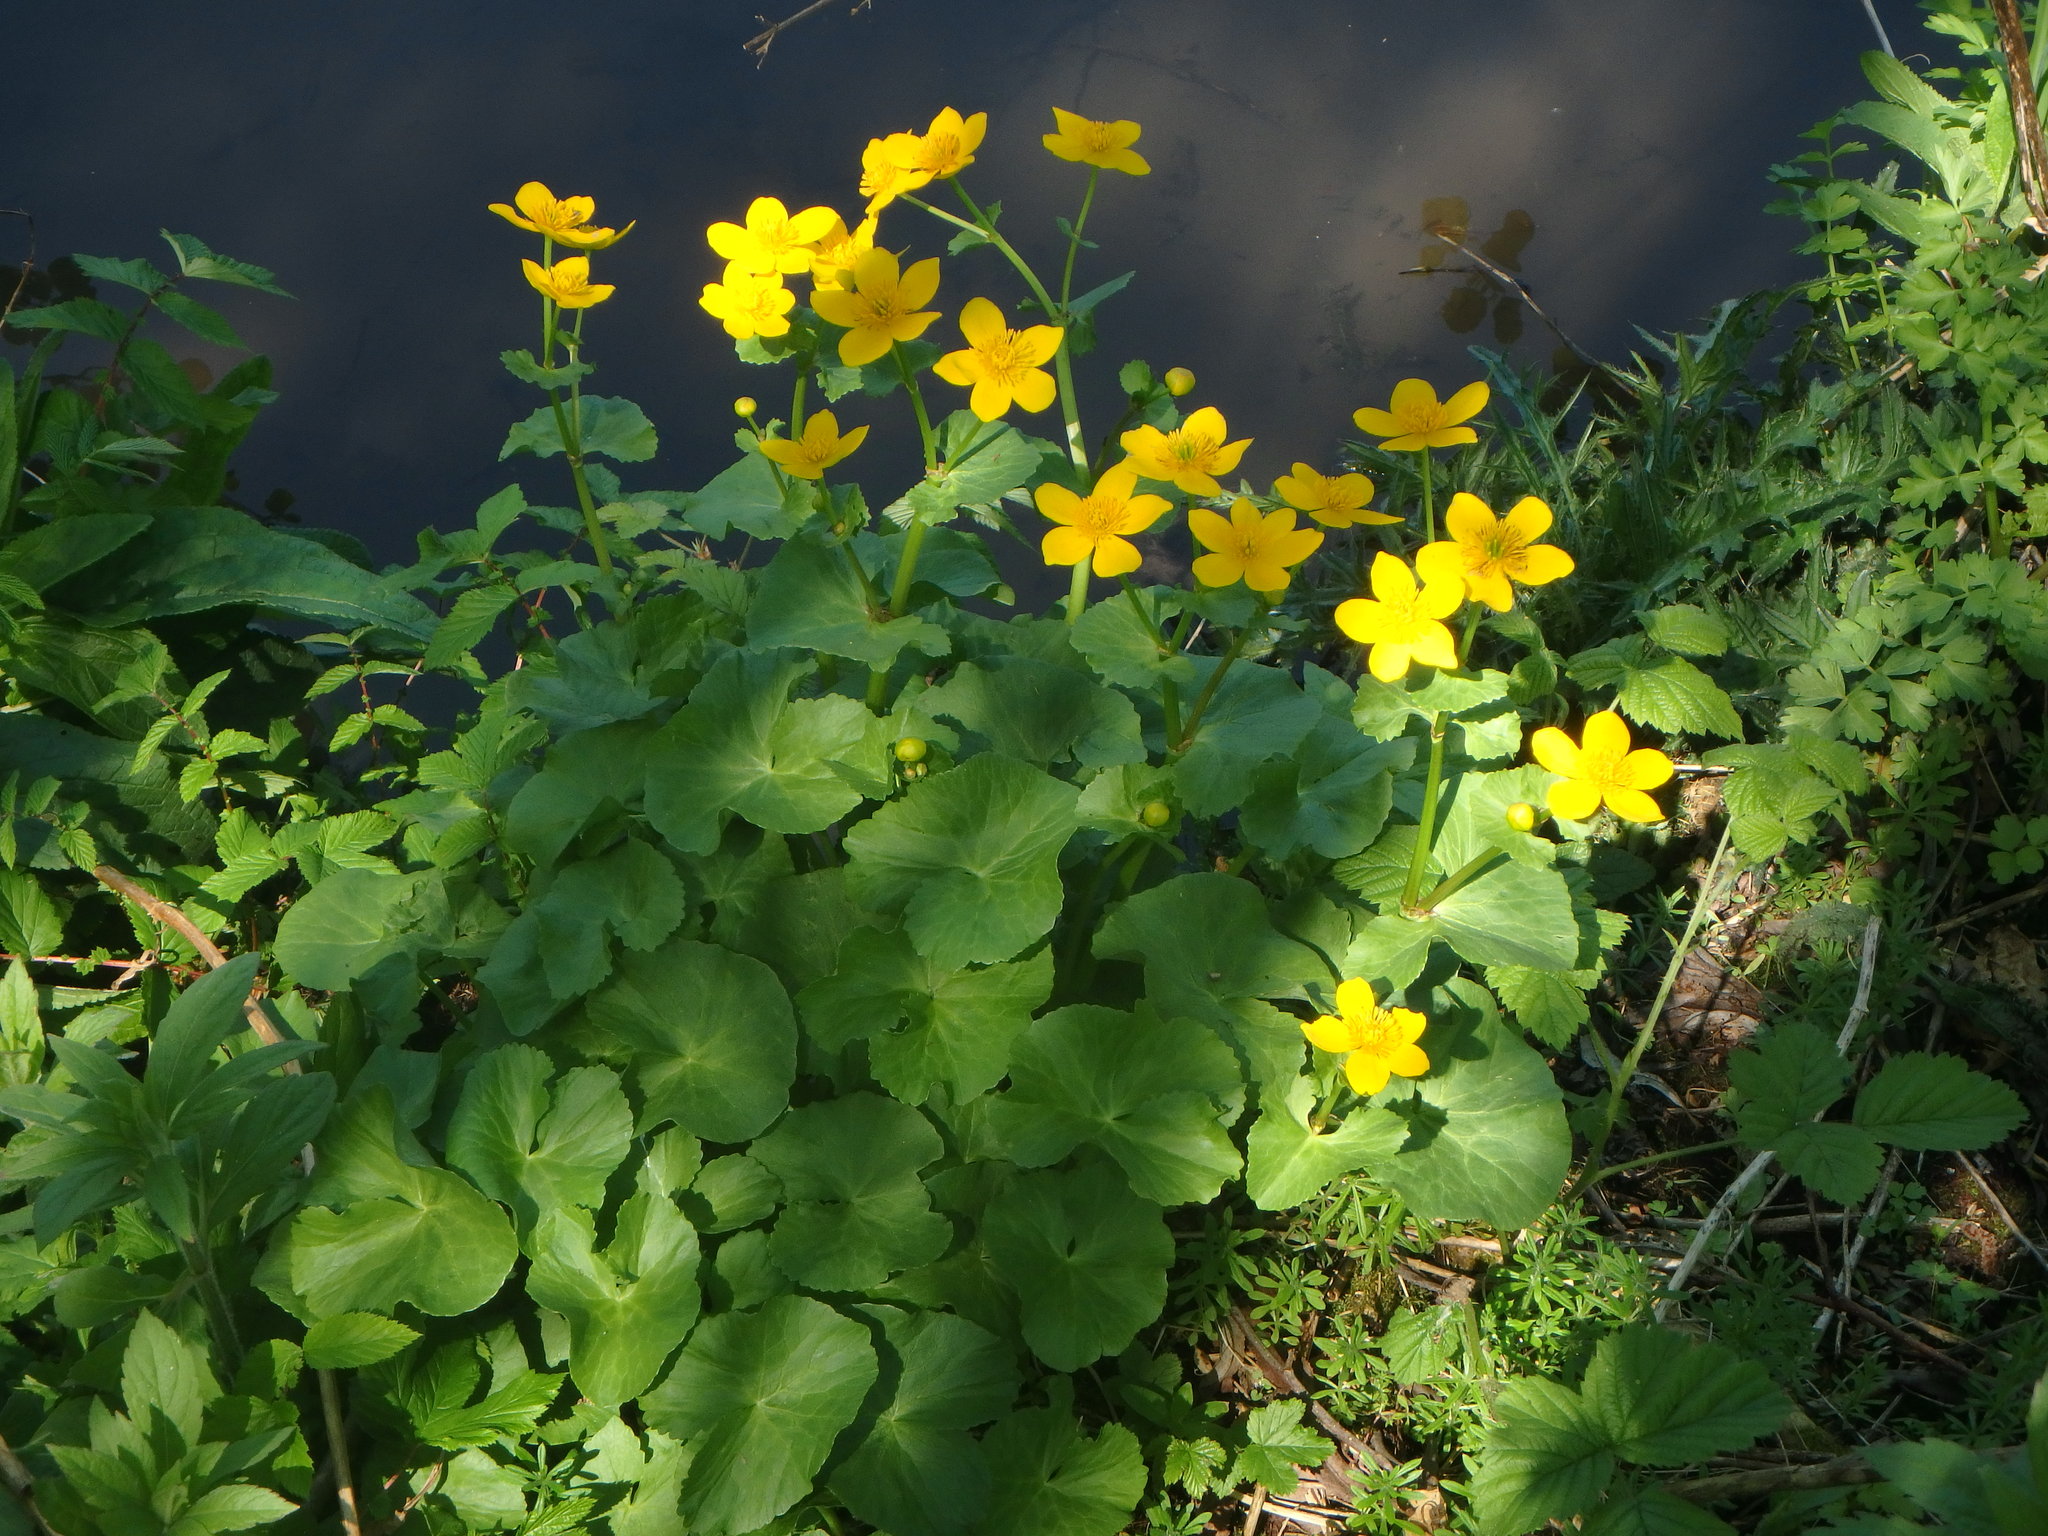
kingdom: Plantae
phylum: Tracheophyta
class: Magnoliopsida
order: Ranunculales
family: Ranunculaceae
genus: Caltha
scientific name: Caltha palustris
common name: Marsh marigold
